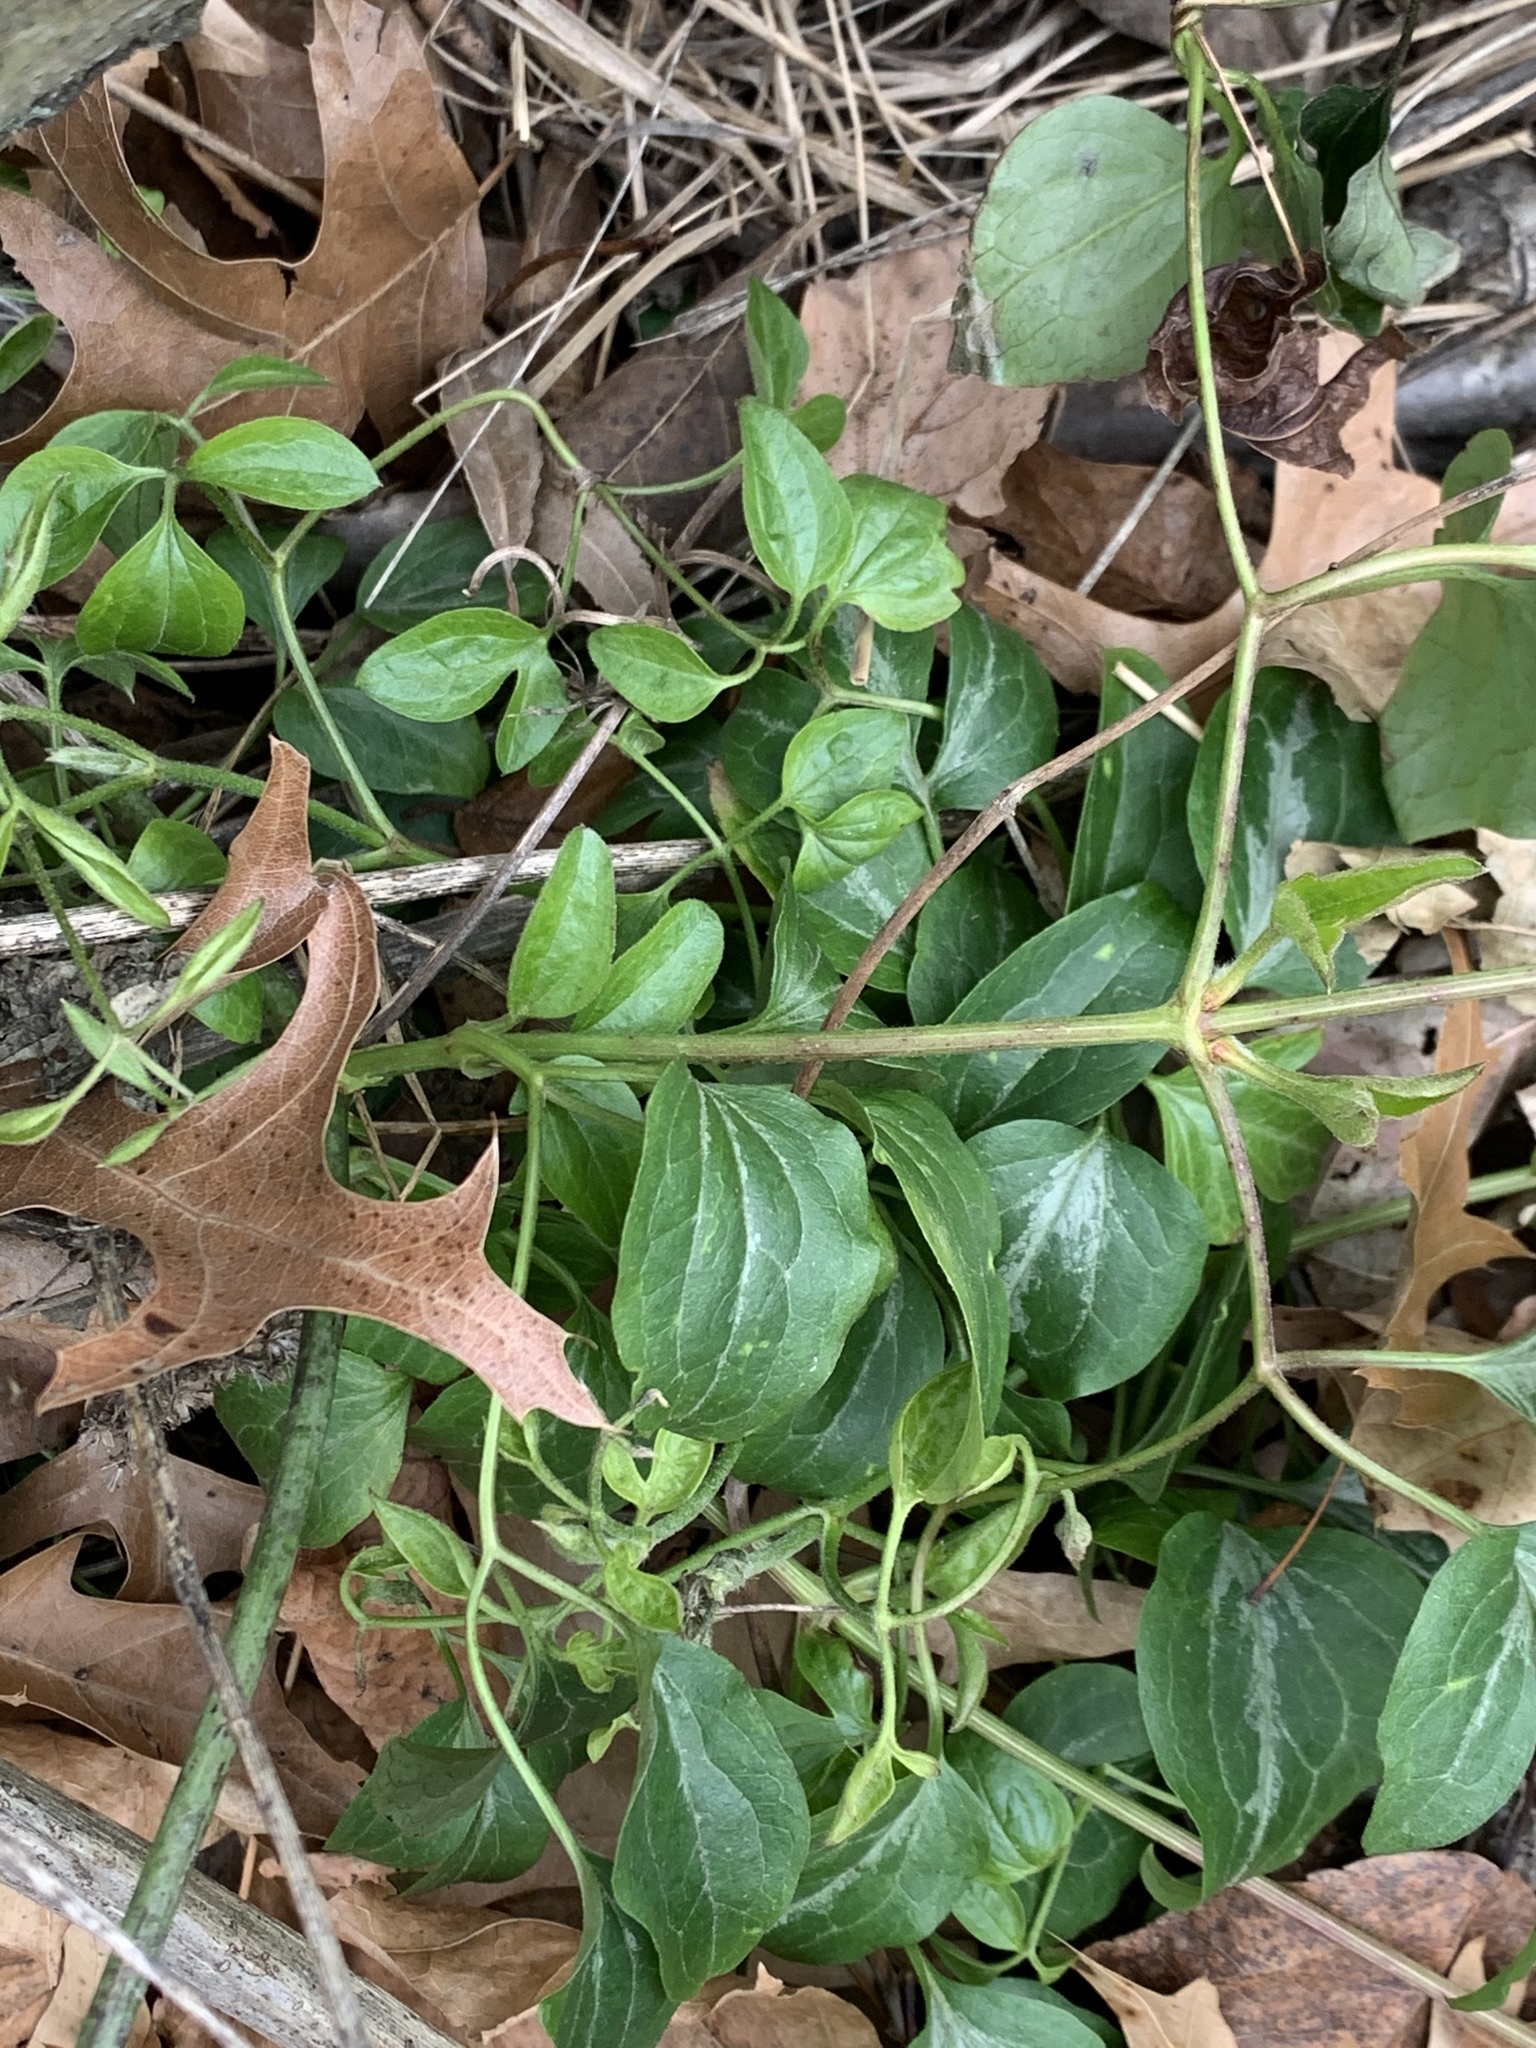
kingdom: Plantae
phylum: Tracheophyta
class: Magnoliopsida
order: Ranunculales
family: Ranunculaceae
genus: Clematis
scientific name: Clematis terniflora
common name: Sweet autumn clematis
